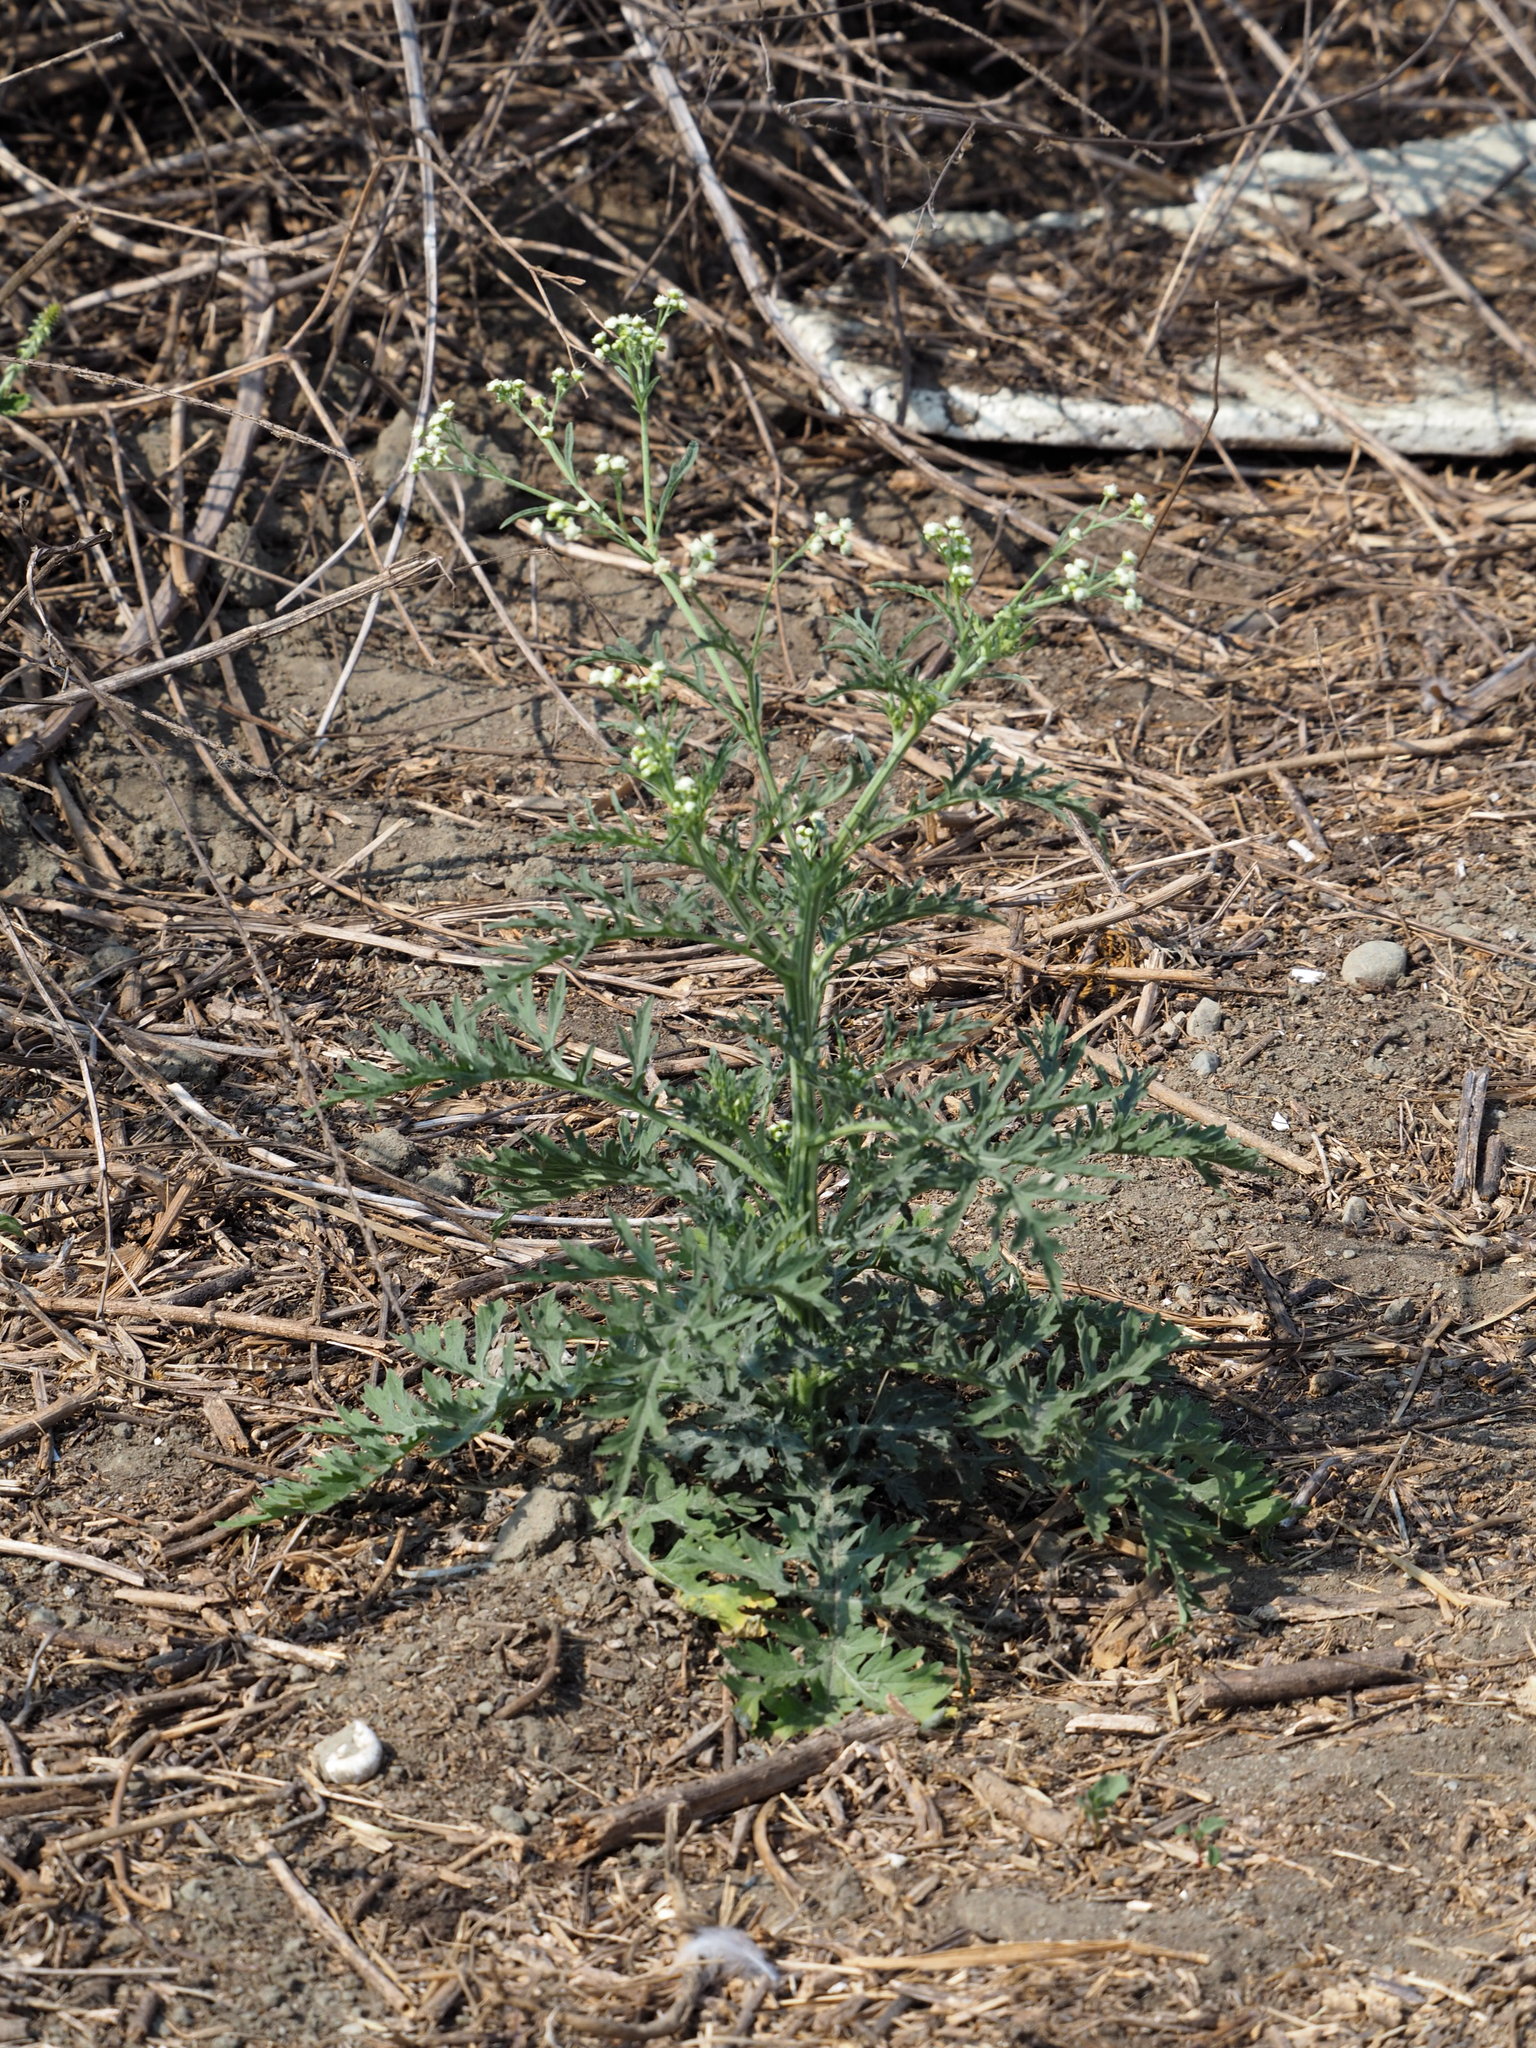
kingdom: Plantae
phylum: Tracheophyta
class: Magnoliopsida
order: Asterales
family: Asteraceae
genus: Parthenium
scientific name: Parthenium hysterophorus
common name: Santa maria feverfew
